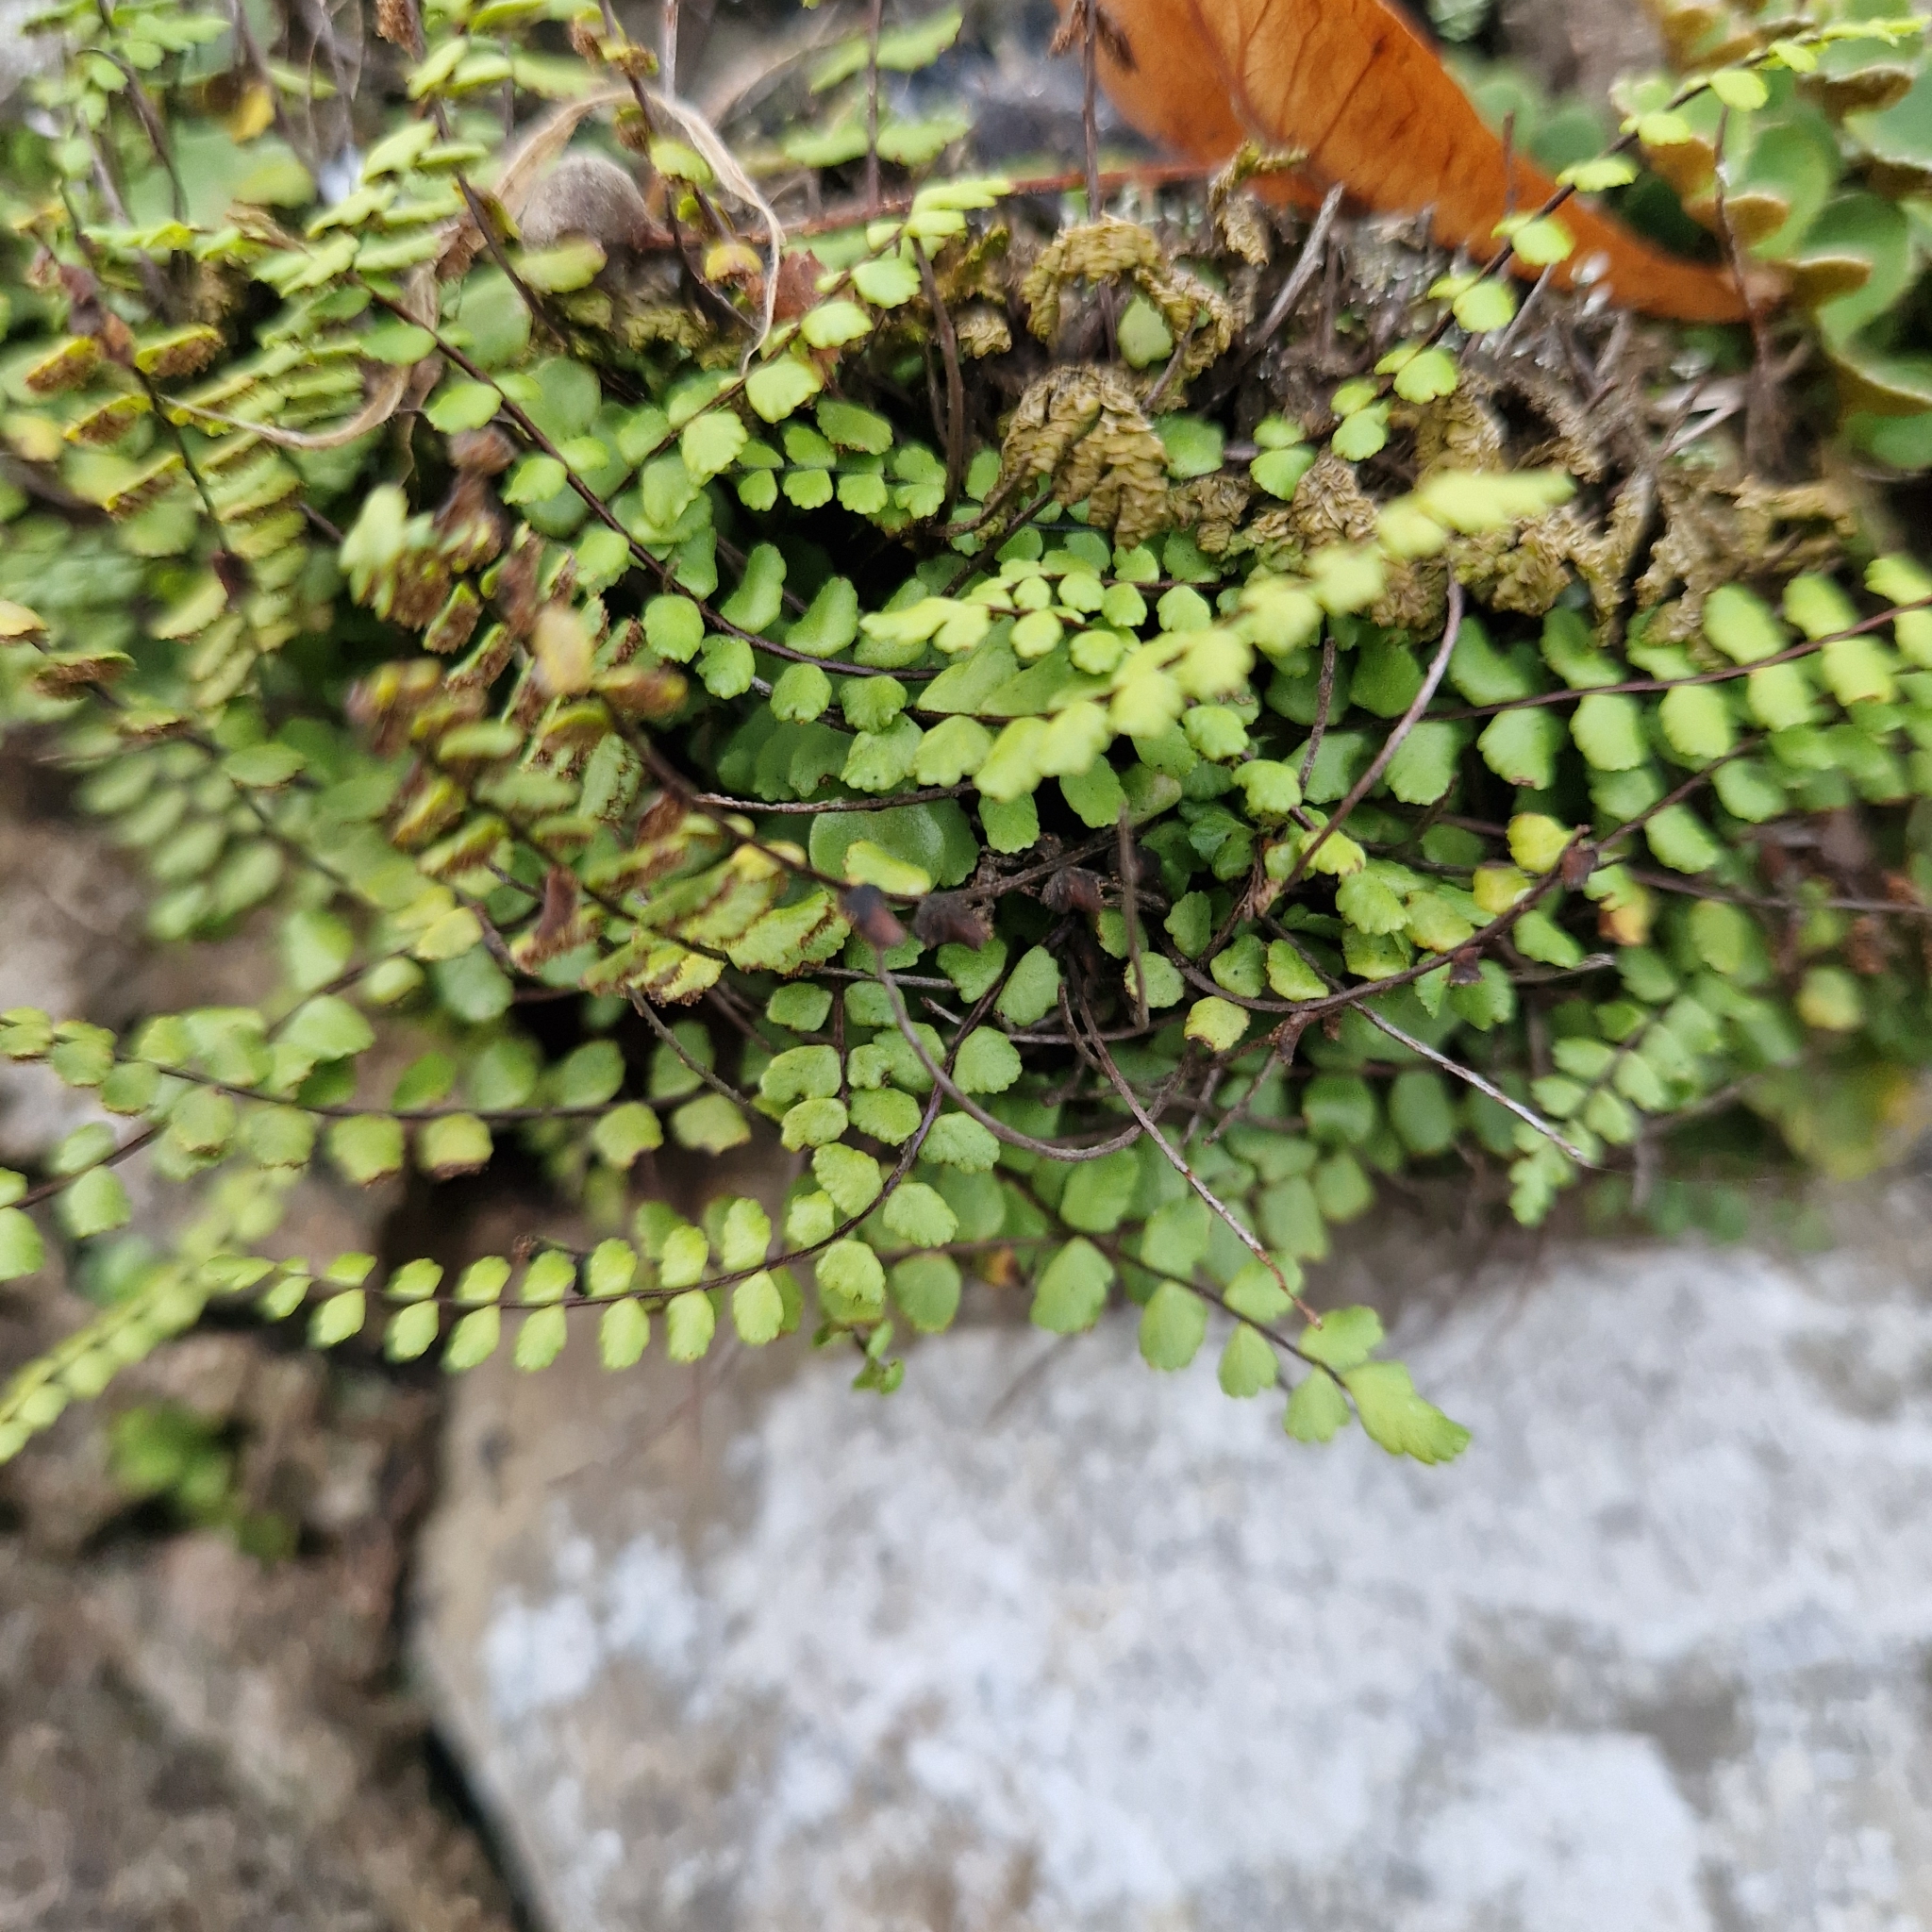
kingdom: Plantae
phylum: Tracheophyta
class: Polypodiopsida
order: Polypodiales
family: Aspleniaceae
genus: Asplenium
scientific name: Asplenium trichomanes
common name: Maidenhair spleenwort
